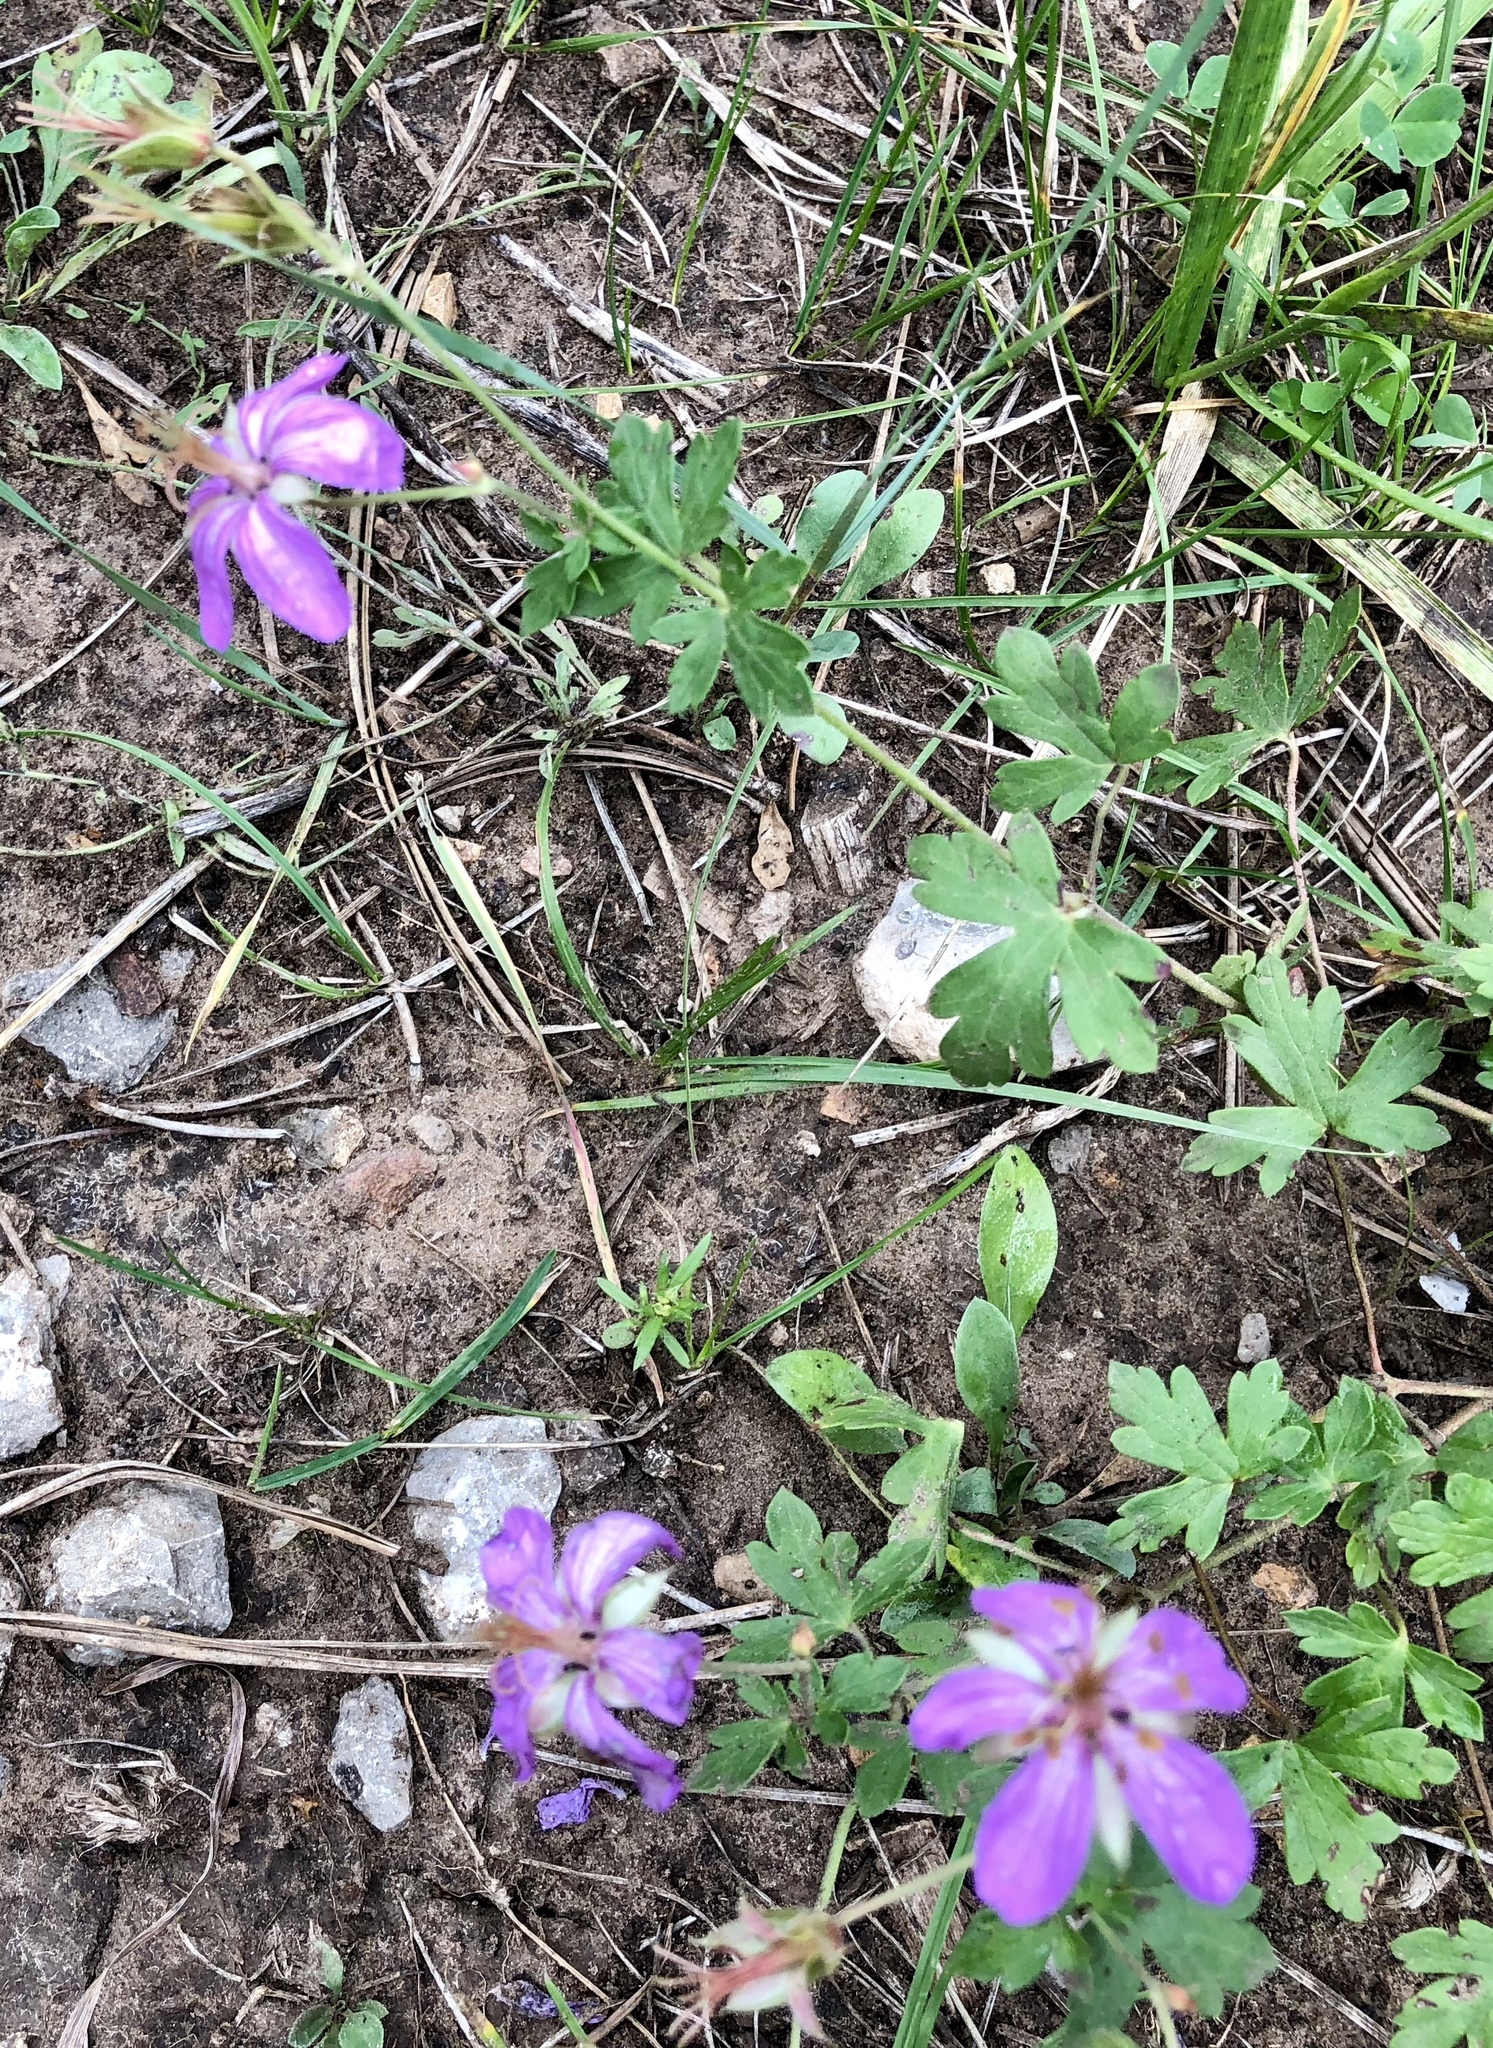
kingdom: Plantae
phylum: Tracheophyta
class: Magnoliopsida
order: Geraniales
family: Geraniaceae
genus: Geranium
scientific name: Geranium caespitosum
